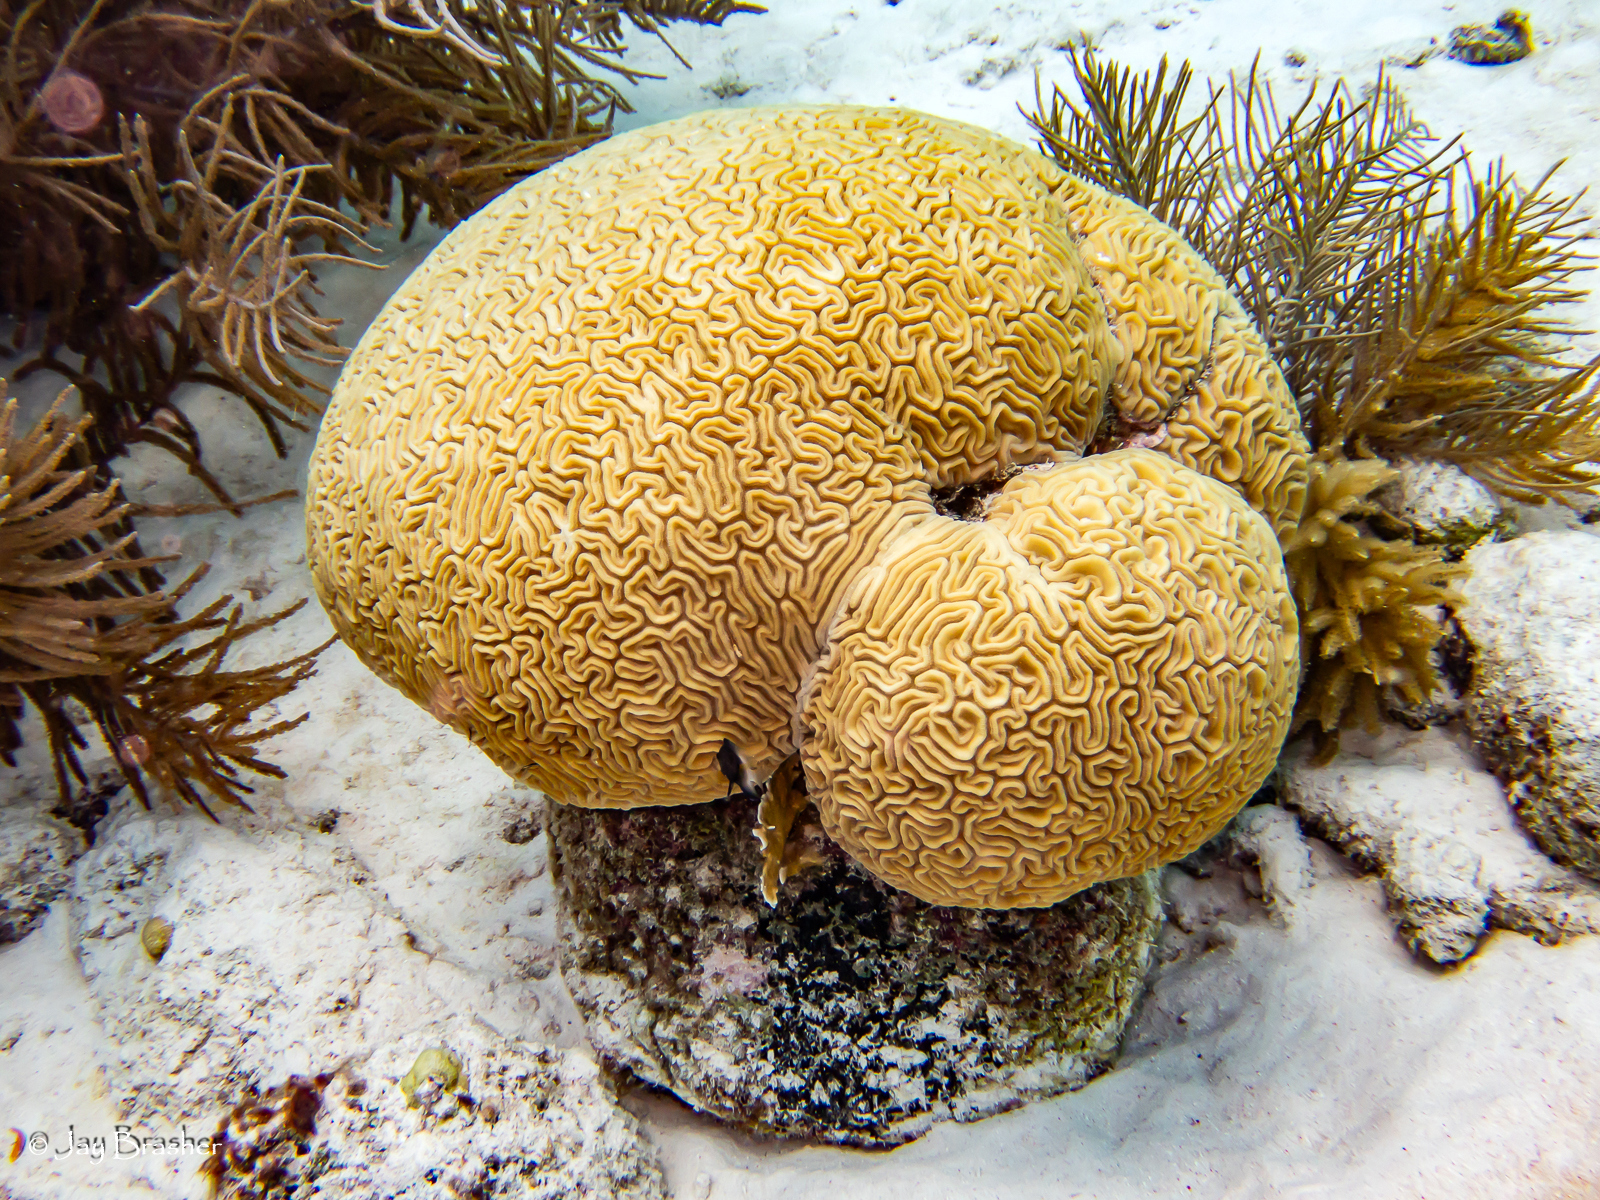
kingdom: Animalia
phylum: Cnidaria
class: Anthozoa
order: Scleractinia
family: Faviidae
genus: Diploria
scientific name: Diploria labyrinthiformis
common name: Grooved brain coral
